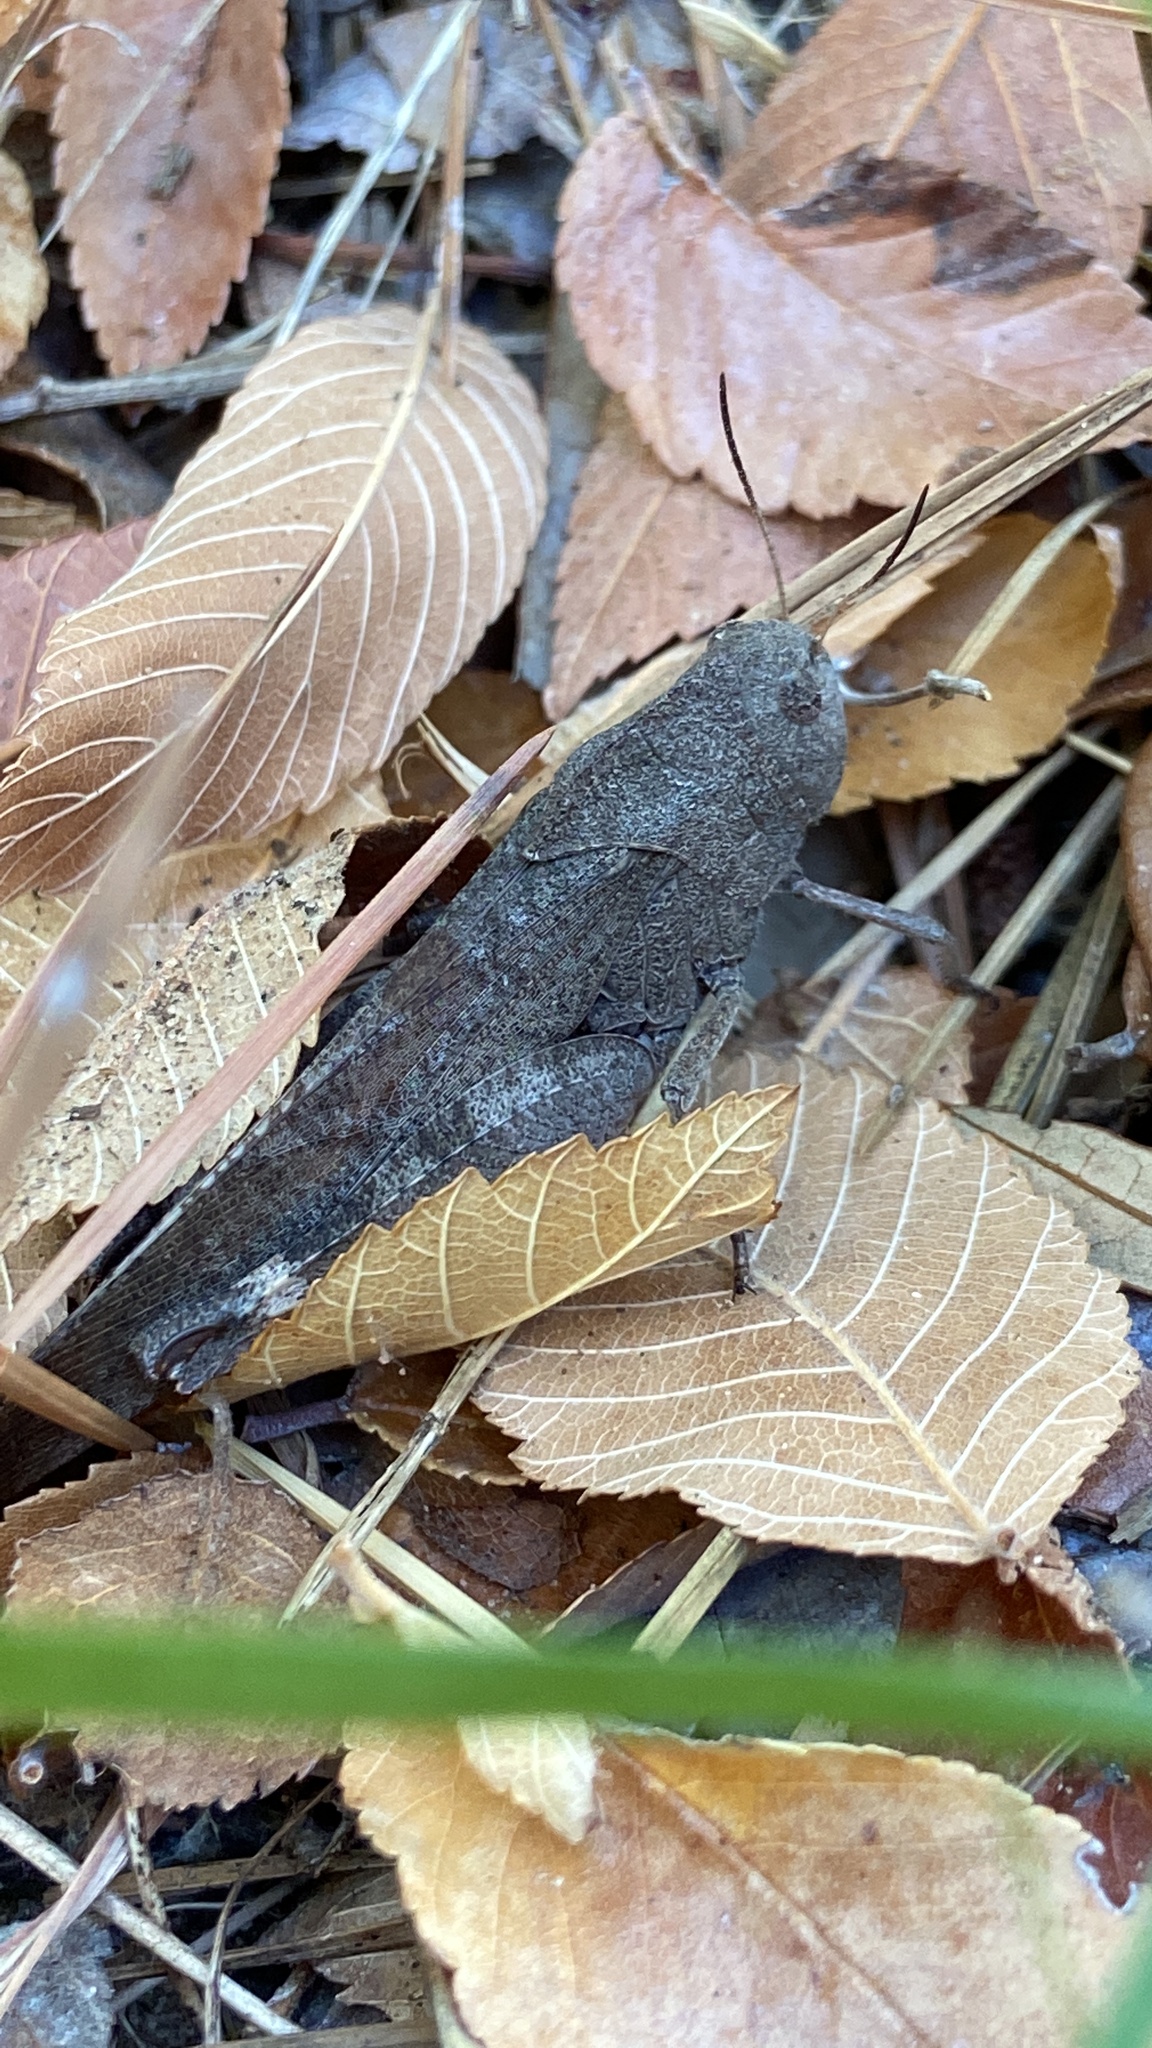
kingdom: Animalia
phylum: Arthropoda
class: Insecta
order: Orthoptera
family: Acrididae
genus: Arphia
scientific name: Arphia xanthoptera
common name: Autumn yellow-winged grasshopper
